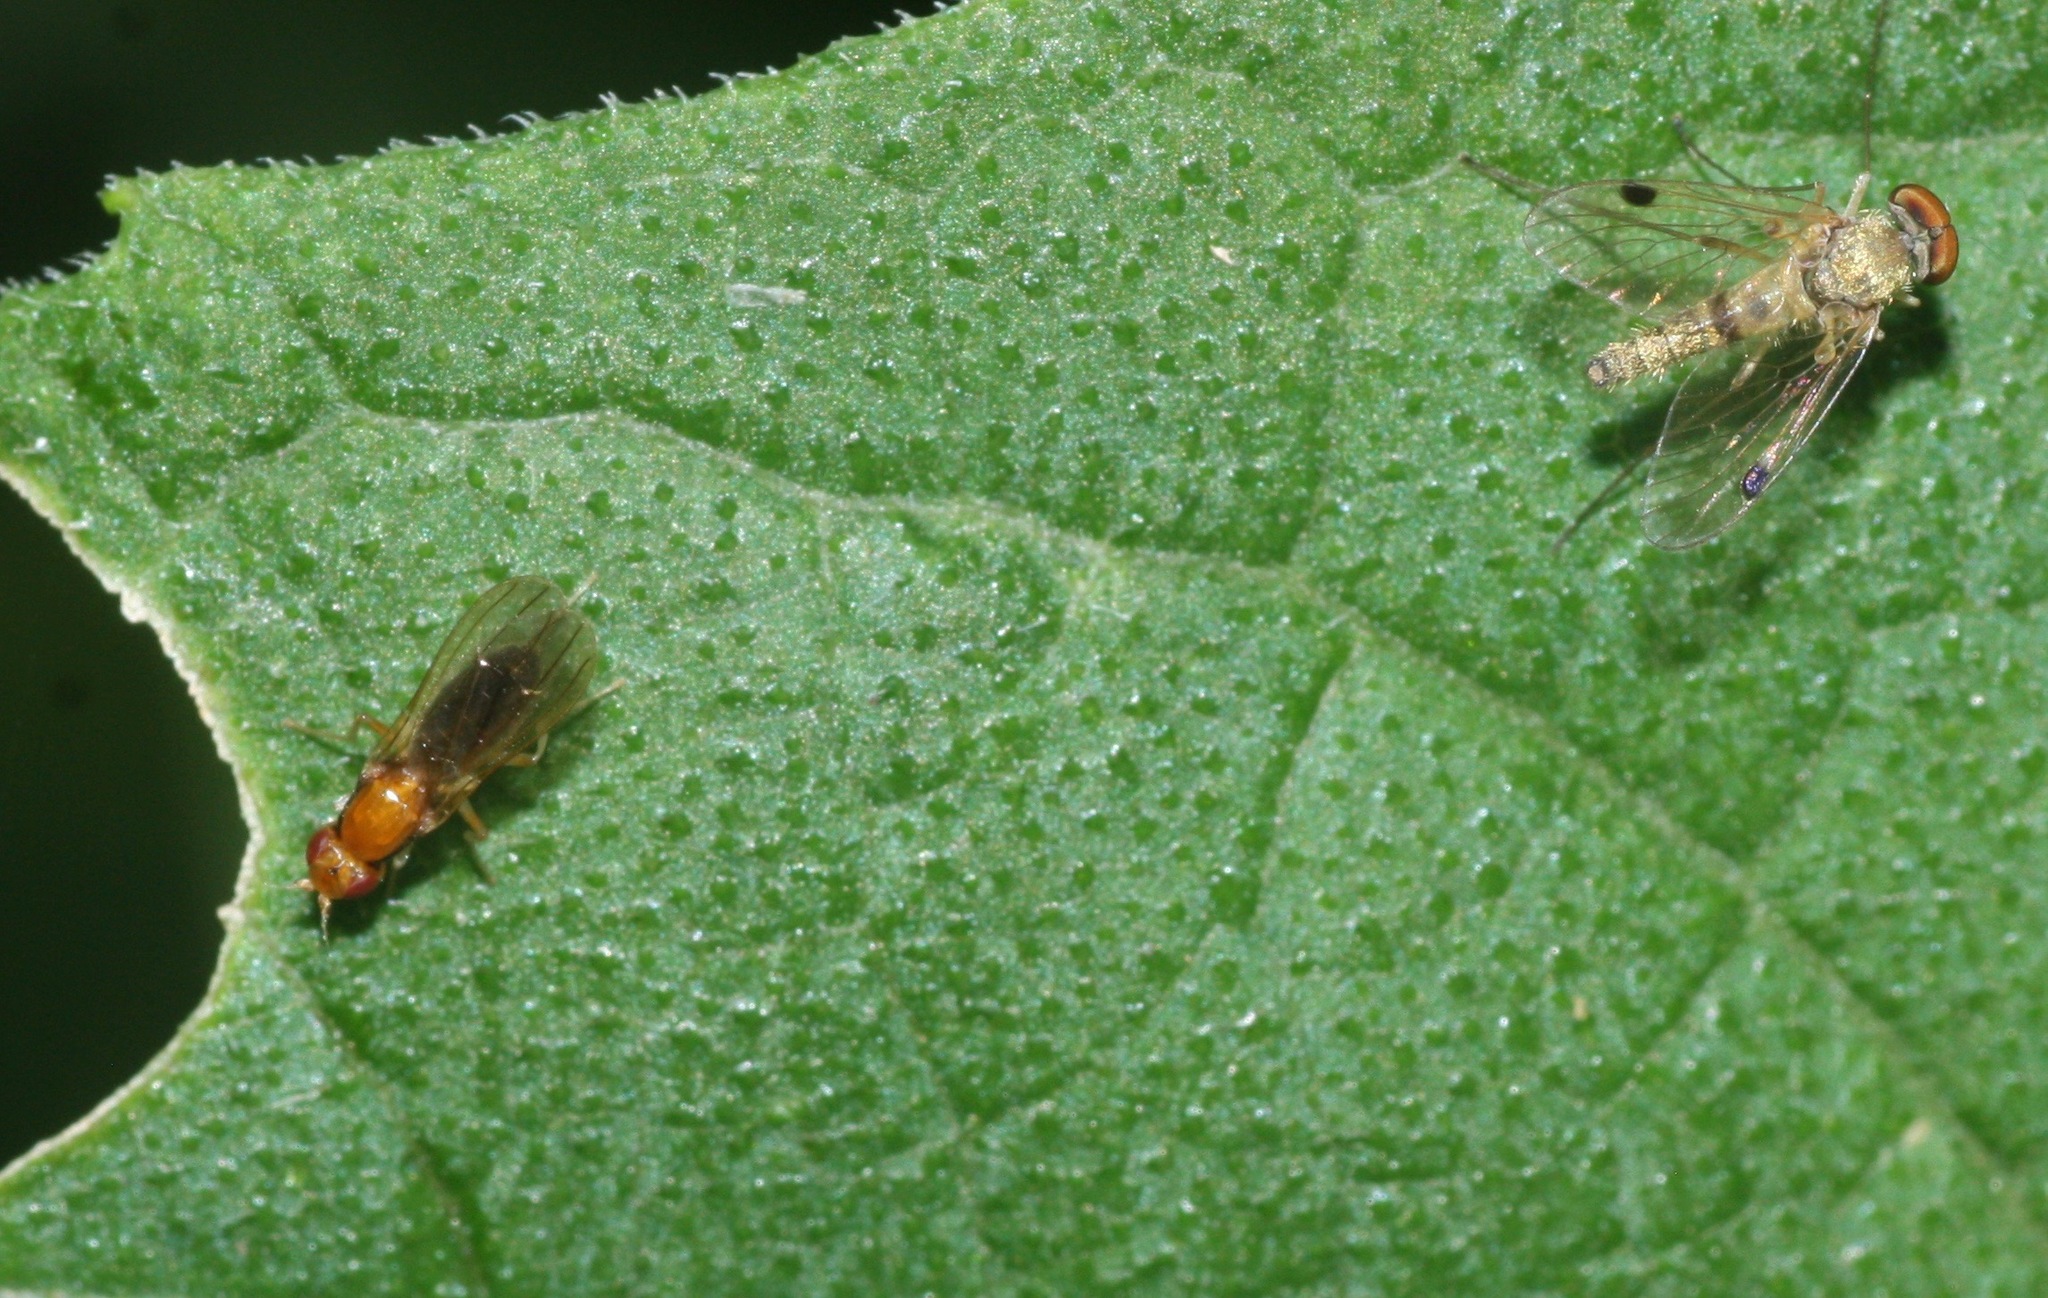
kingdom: Animalia
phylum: Arthropoda
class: Insecta
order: Diptera
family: Rhagionidae
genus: Chrysopilus
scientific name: Chrysopilus modestus
